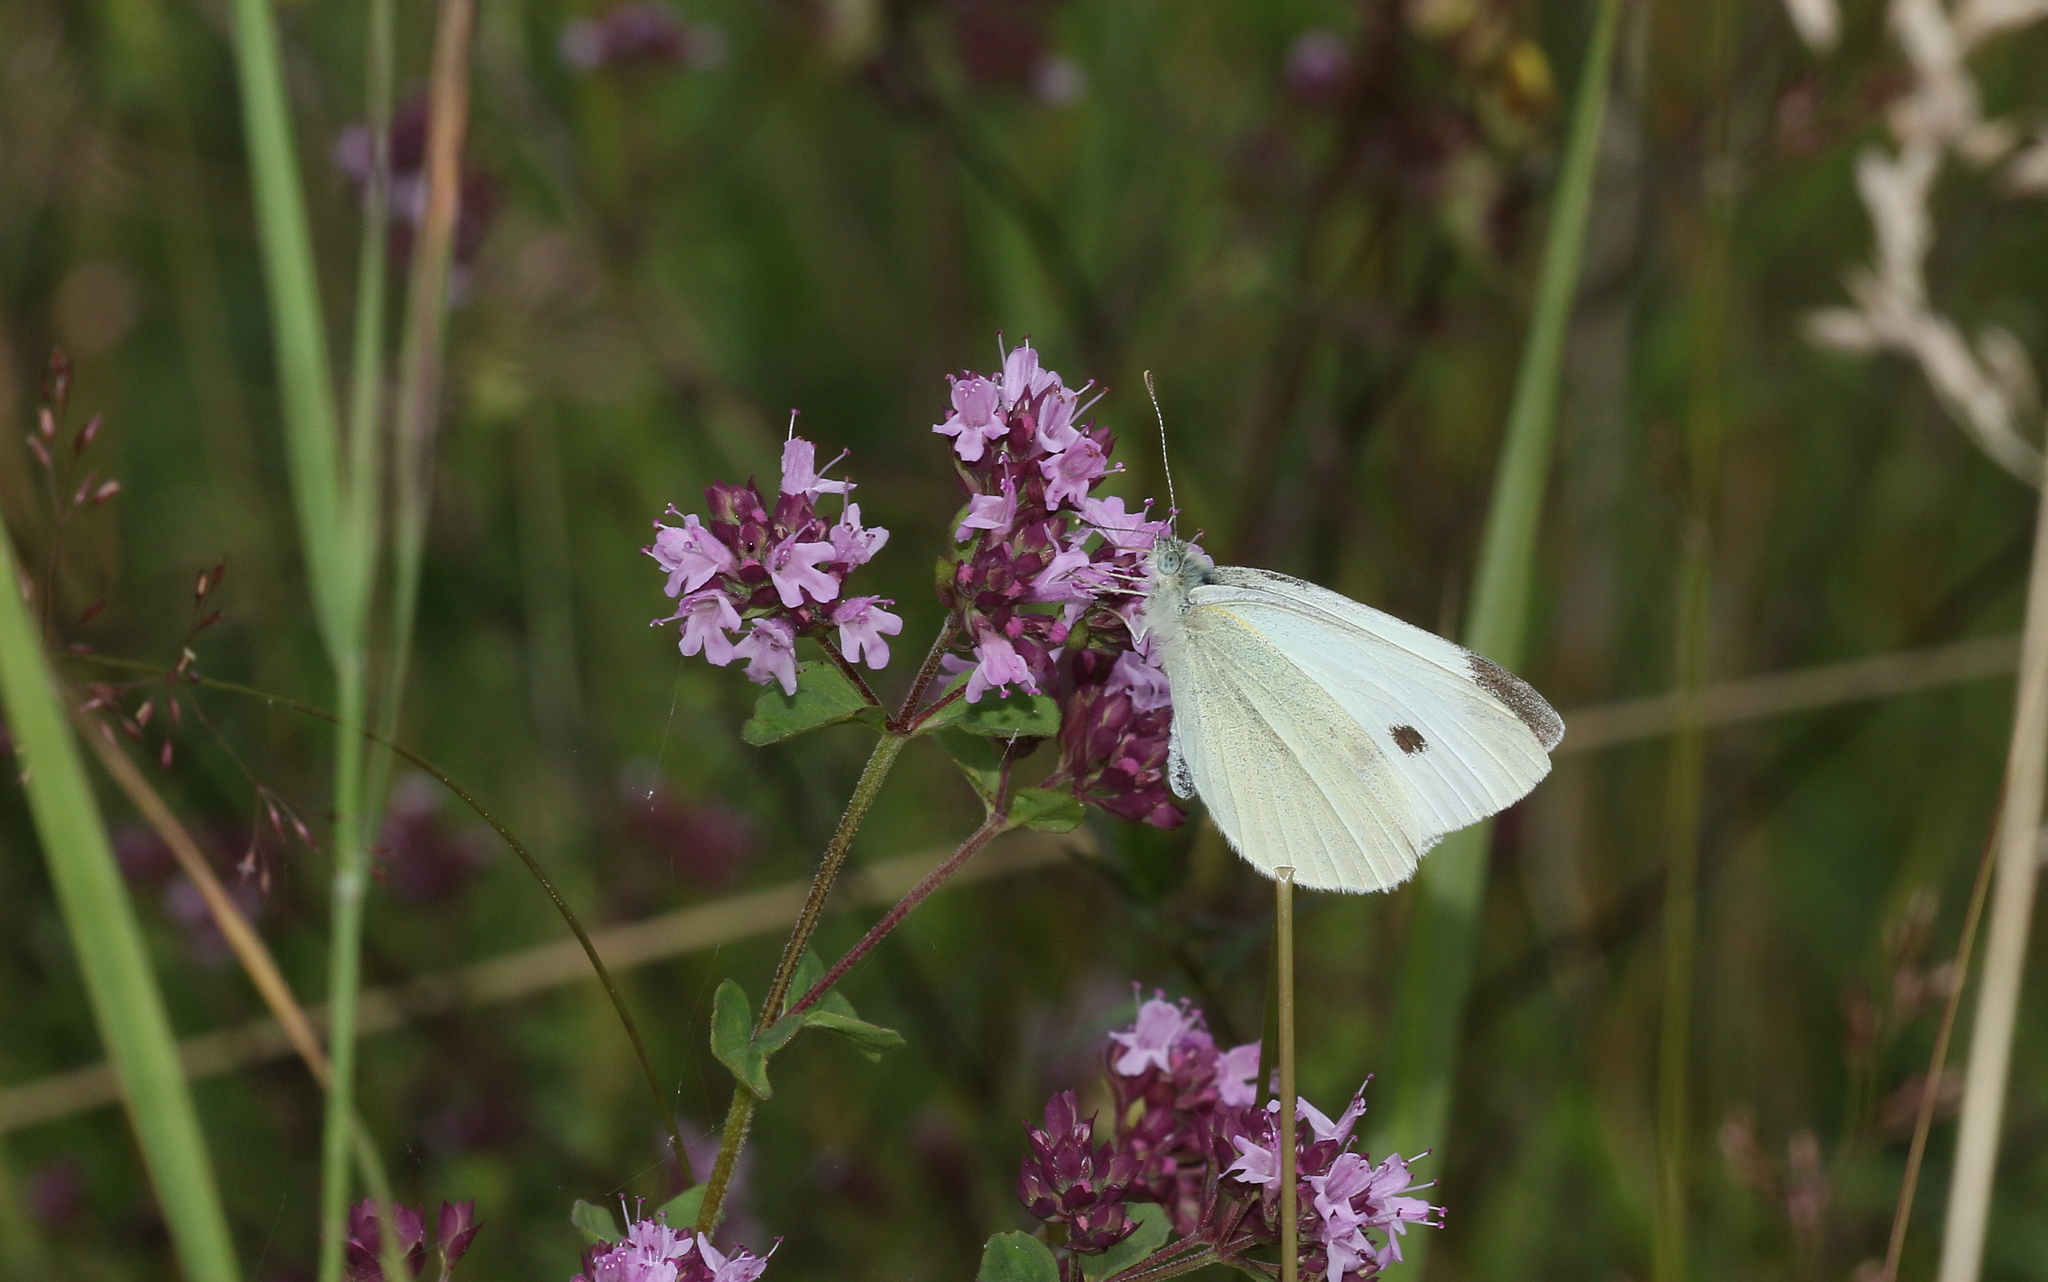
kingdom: Animalia
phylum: Arthropoda
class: Insecta
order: Lepidoptera
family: Pieridae
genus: Pieris
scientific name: Pieris rapae
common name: Small white
